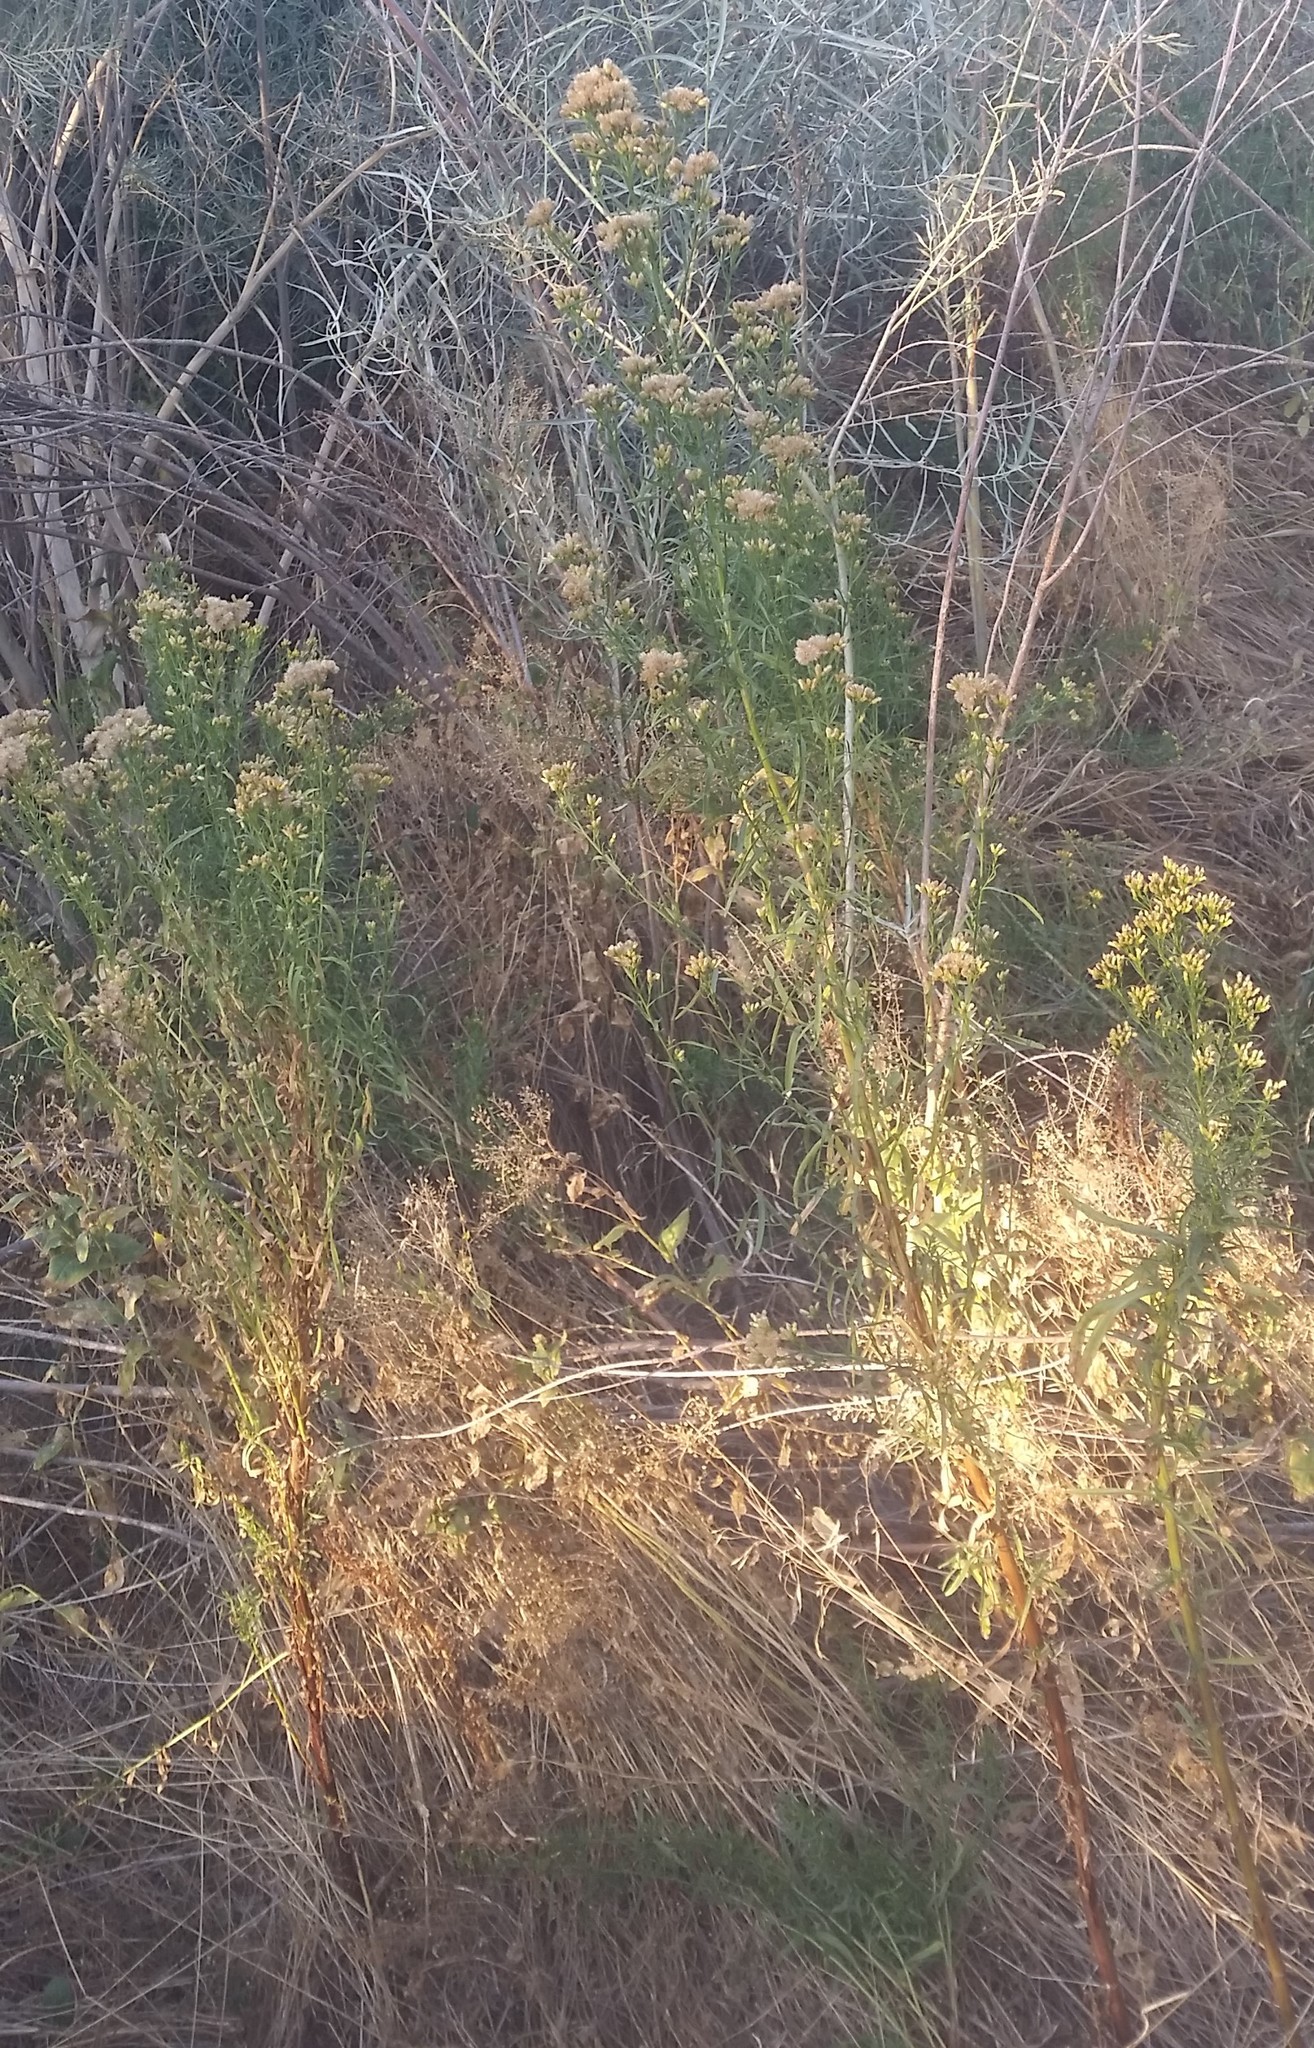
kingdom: Plantae
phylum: Tracheophyta
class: Magnoliopsida
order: Asterales
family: Asteraceae
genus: Euthamia
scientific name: Euthamia occidentalis
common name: Western goldentop
